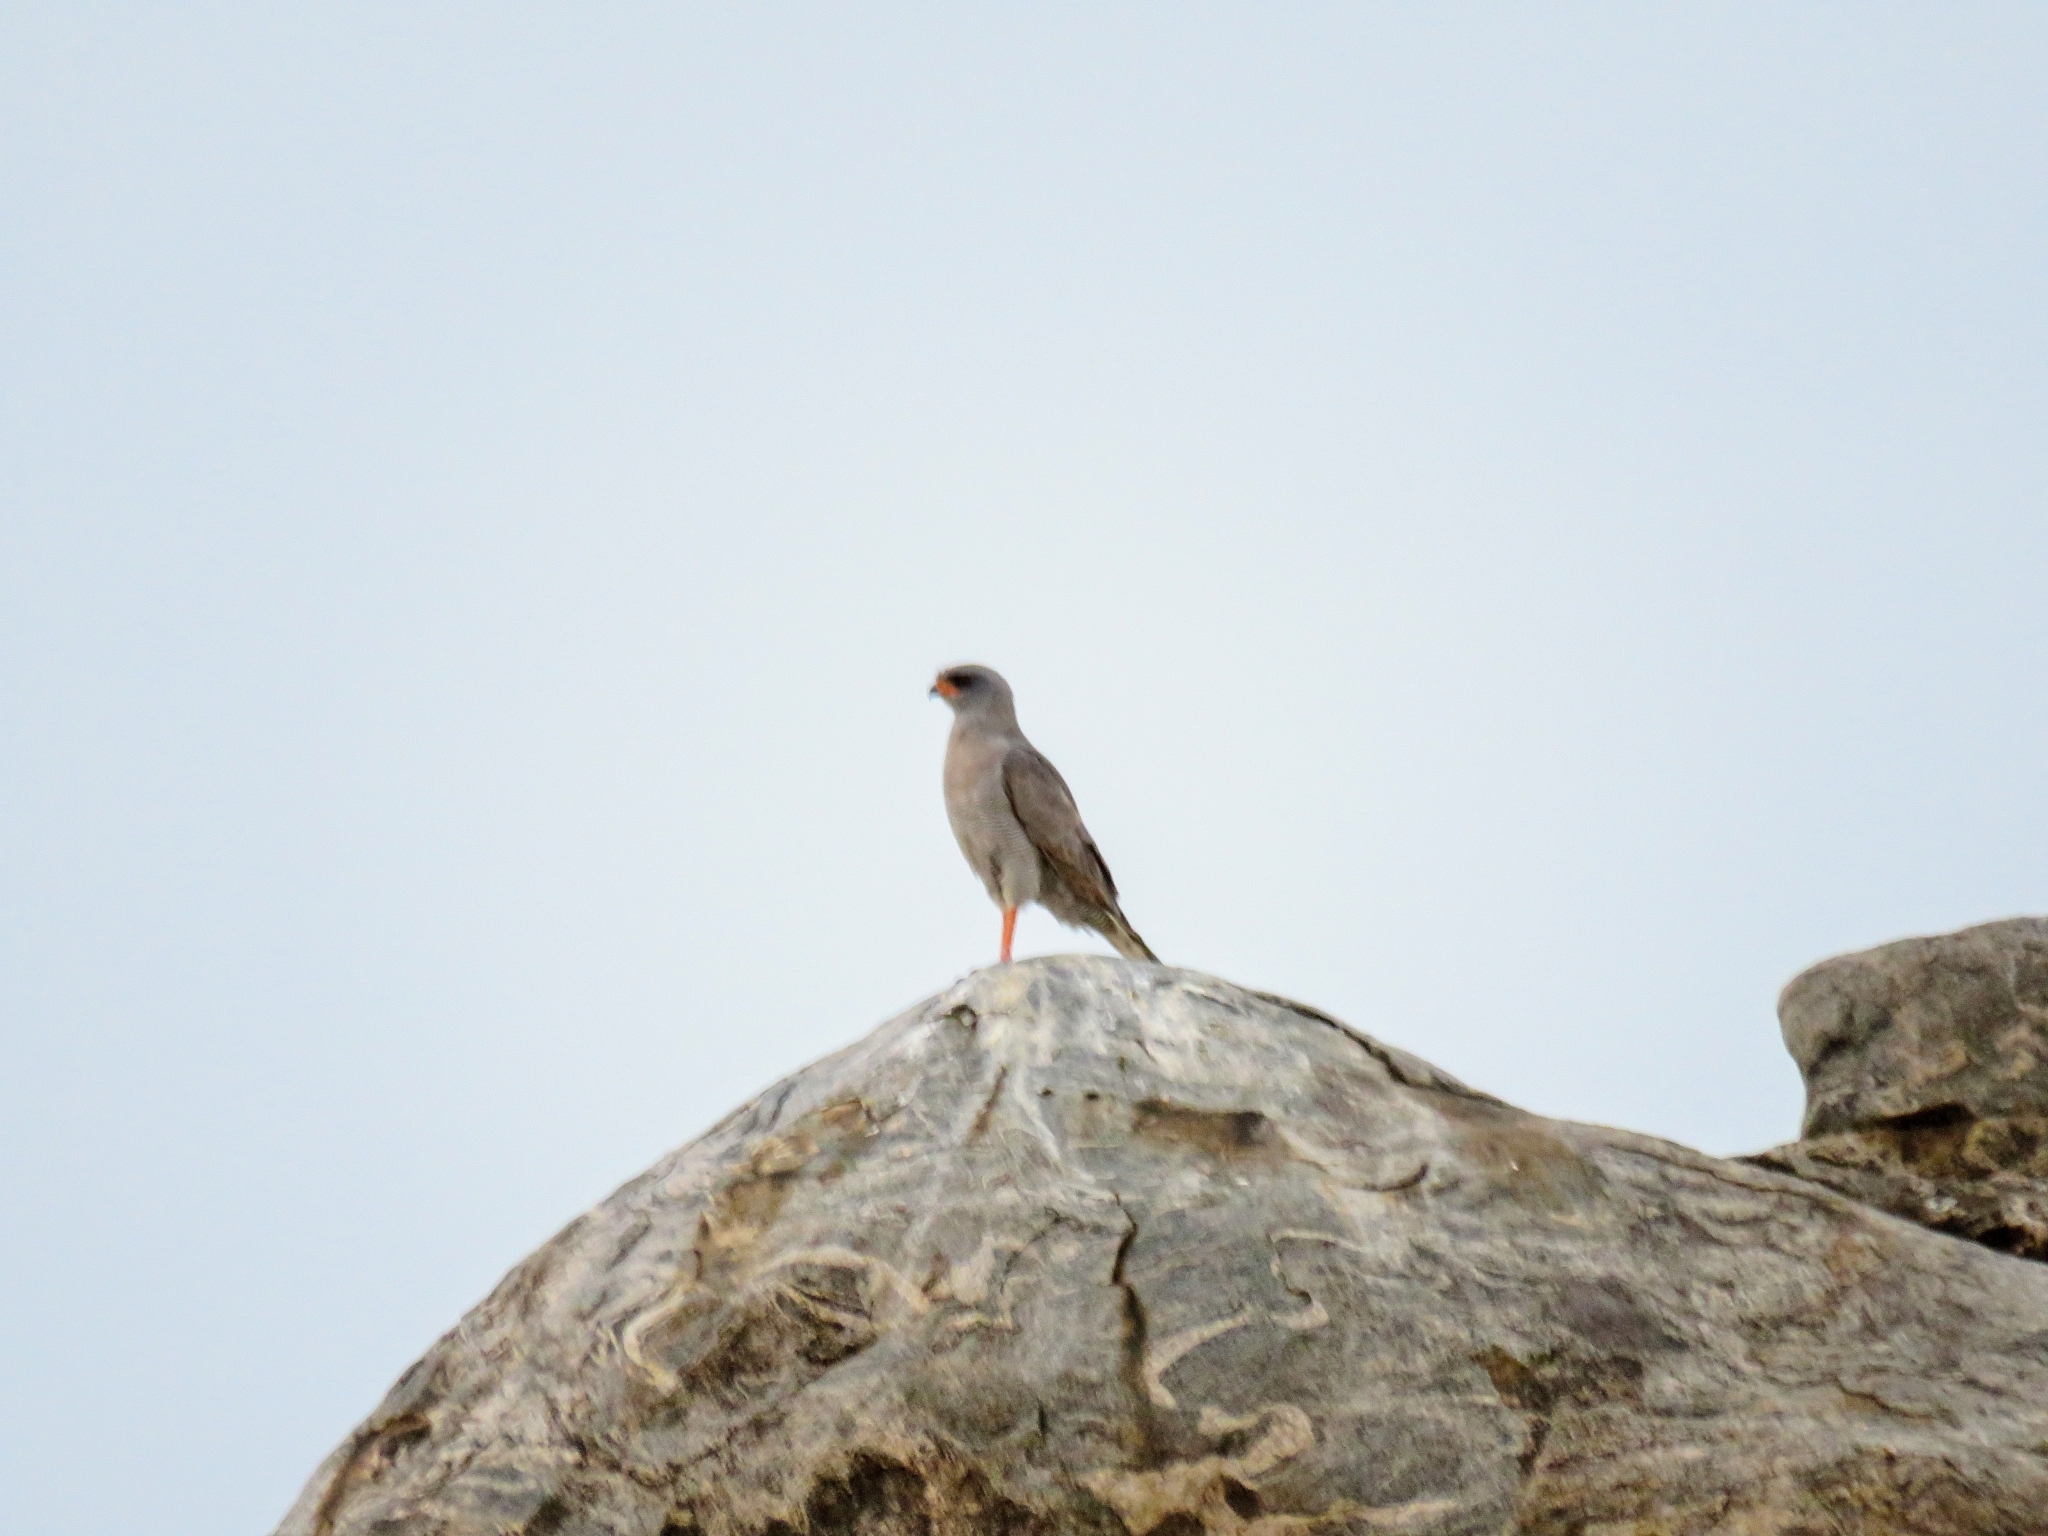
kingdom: Animalia
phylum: Chordata
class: Aves
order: Accipitriformes
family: Accipitridae
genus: Melierax
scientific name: Melierax poliopterus
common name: Eastern chanting goshawk
